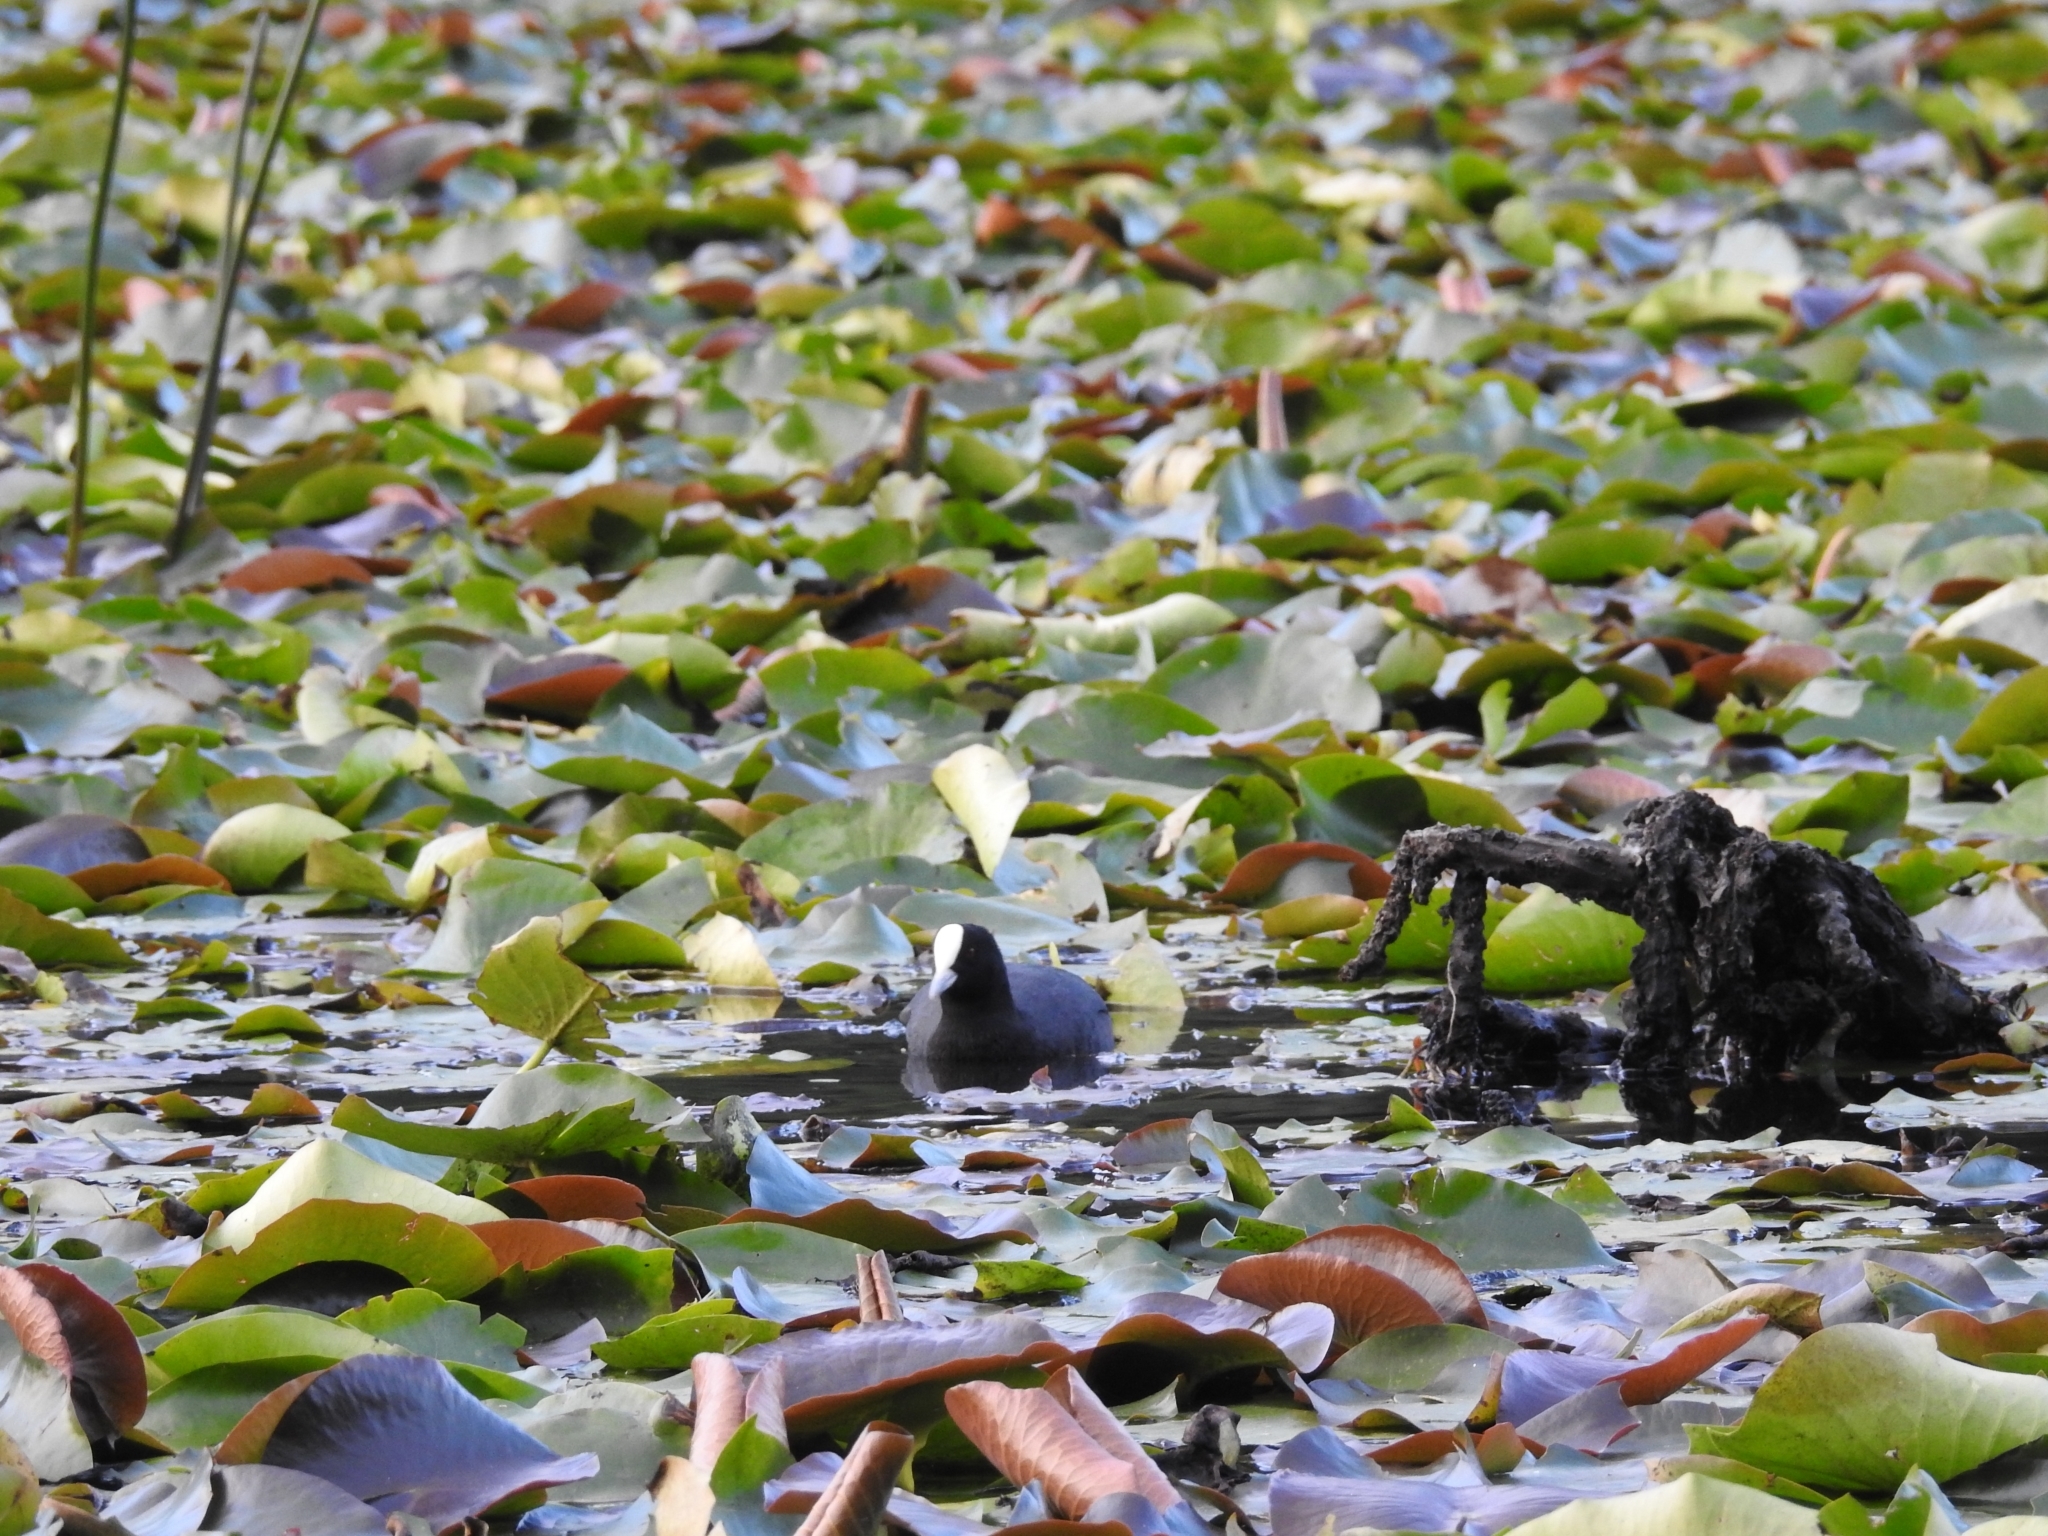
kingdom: Animalia
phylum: Chordata
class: Aves
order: Gruiformes
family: Rallidae
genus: Fulica
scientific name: Fulica atra
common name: Eurasian coot
